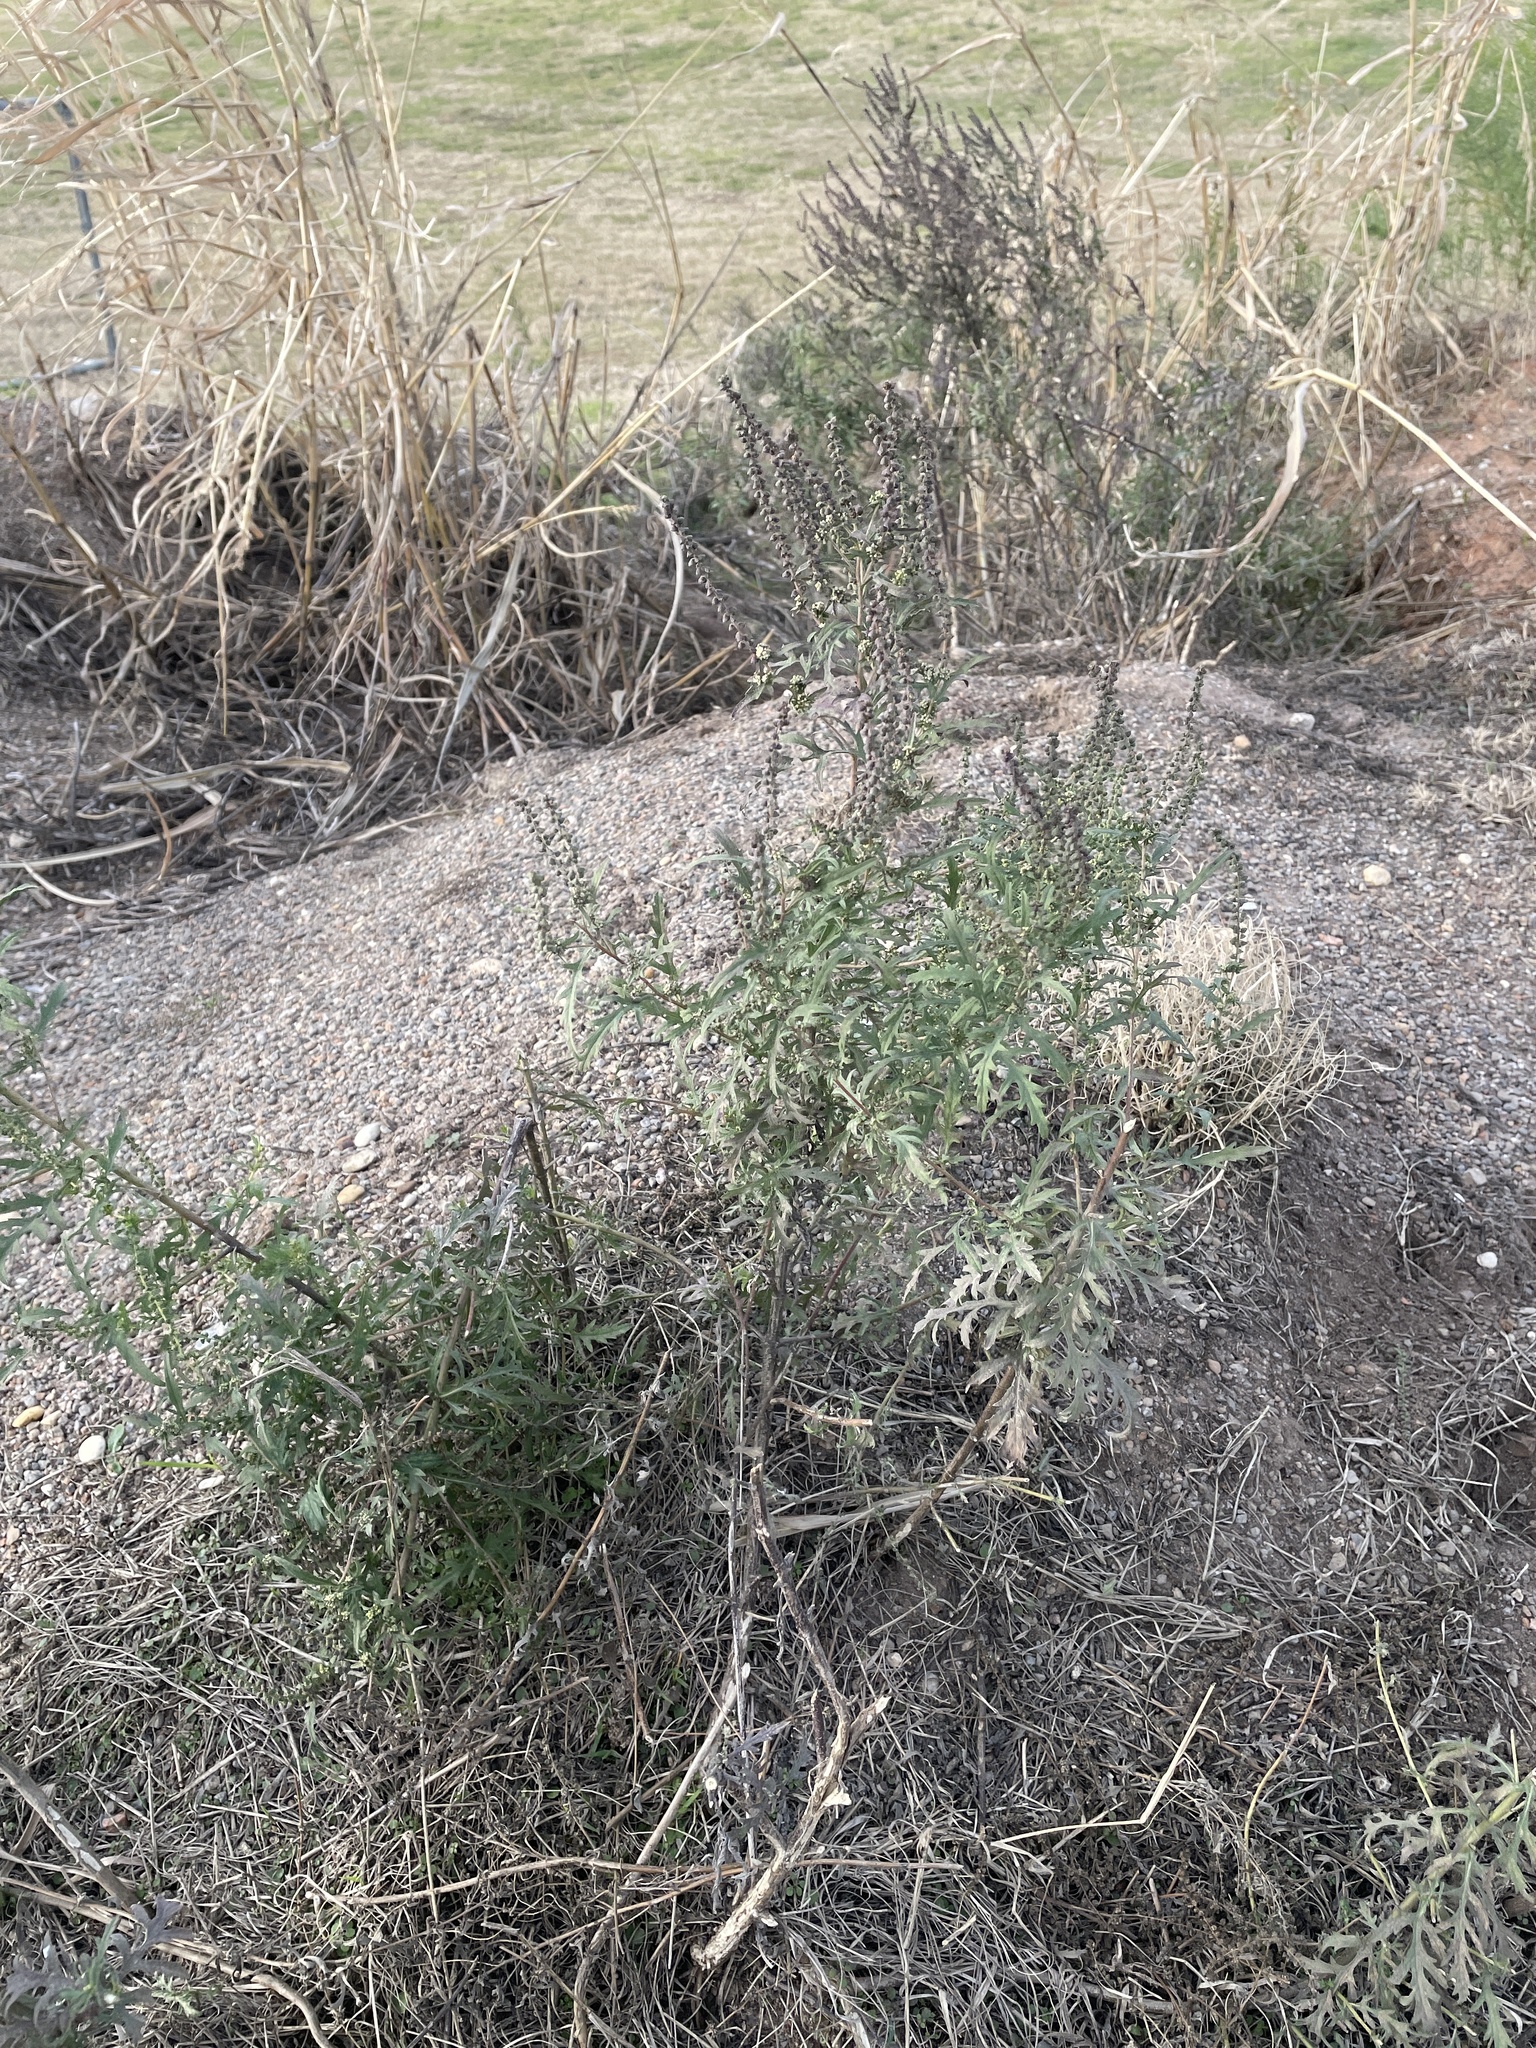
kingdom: Plantae
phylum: Tracheophyta
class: Magnoliopsida
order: Asterales
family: Asteraceae
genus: Ambrosia
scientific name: Ambrosia psilostachya
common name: Perennial ragweed
